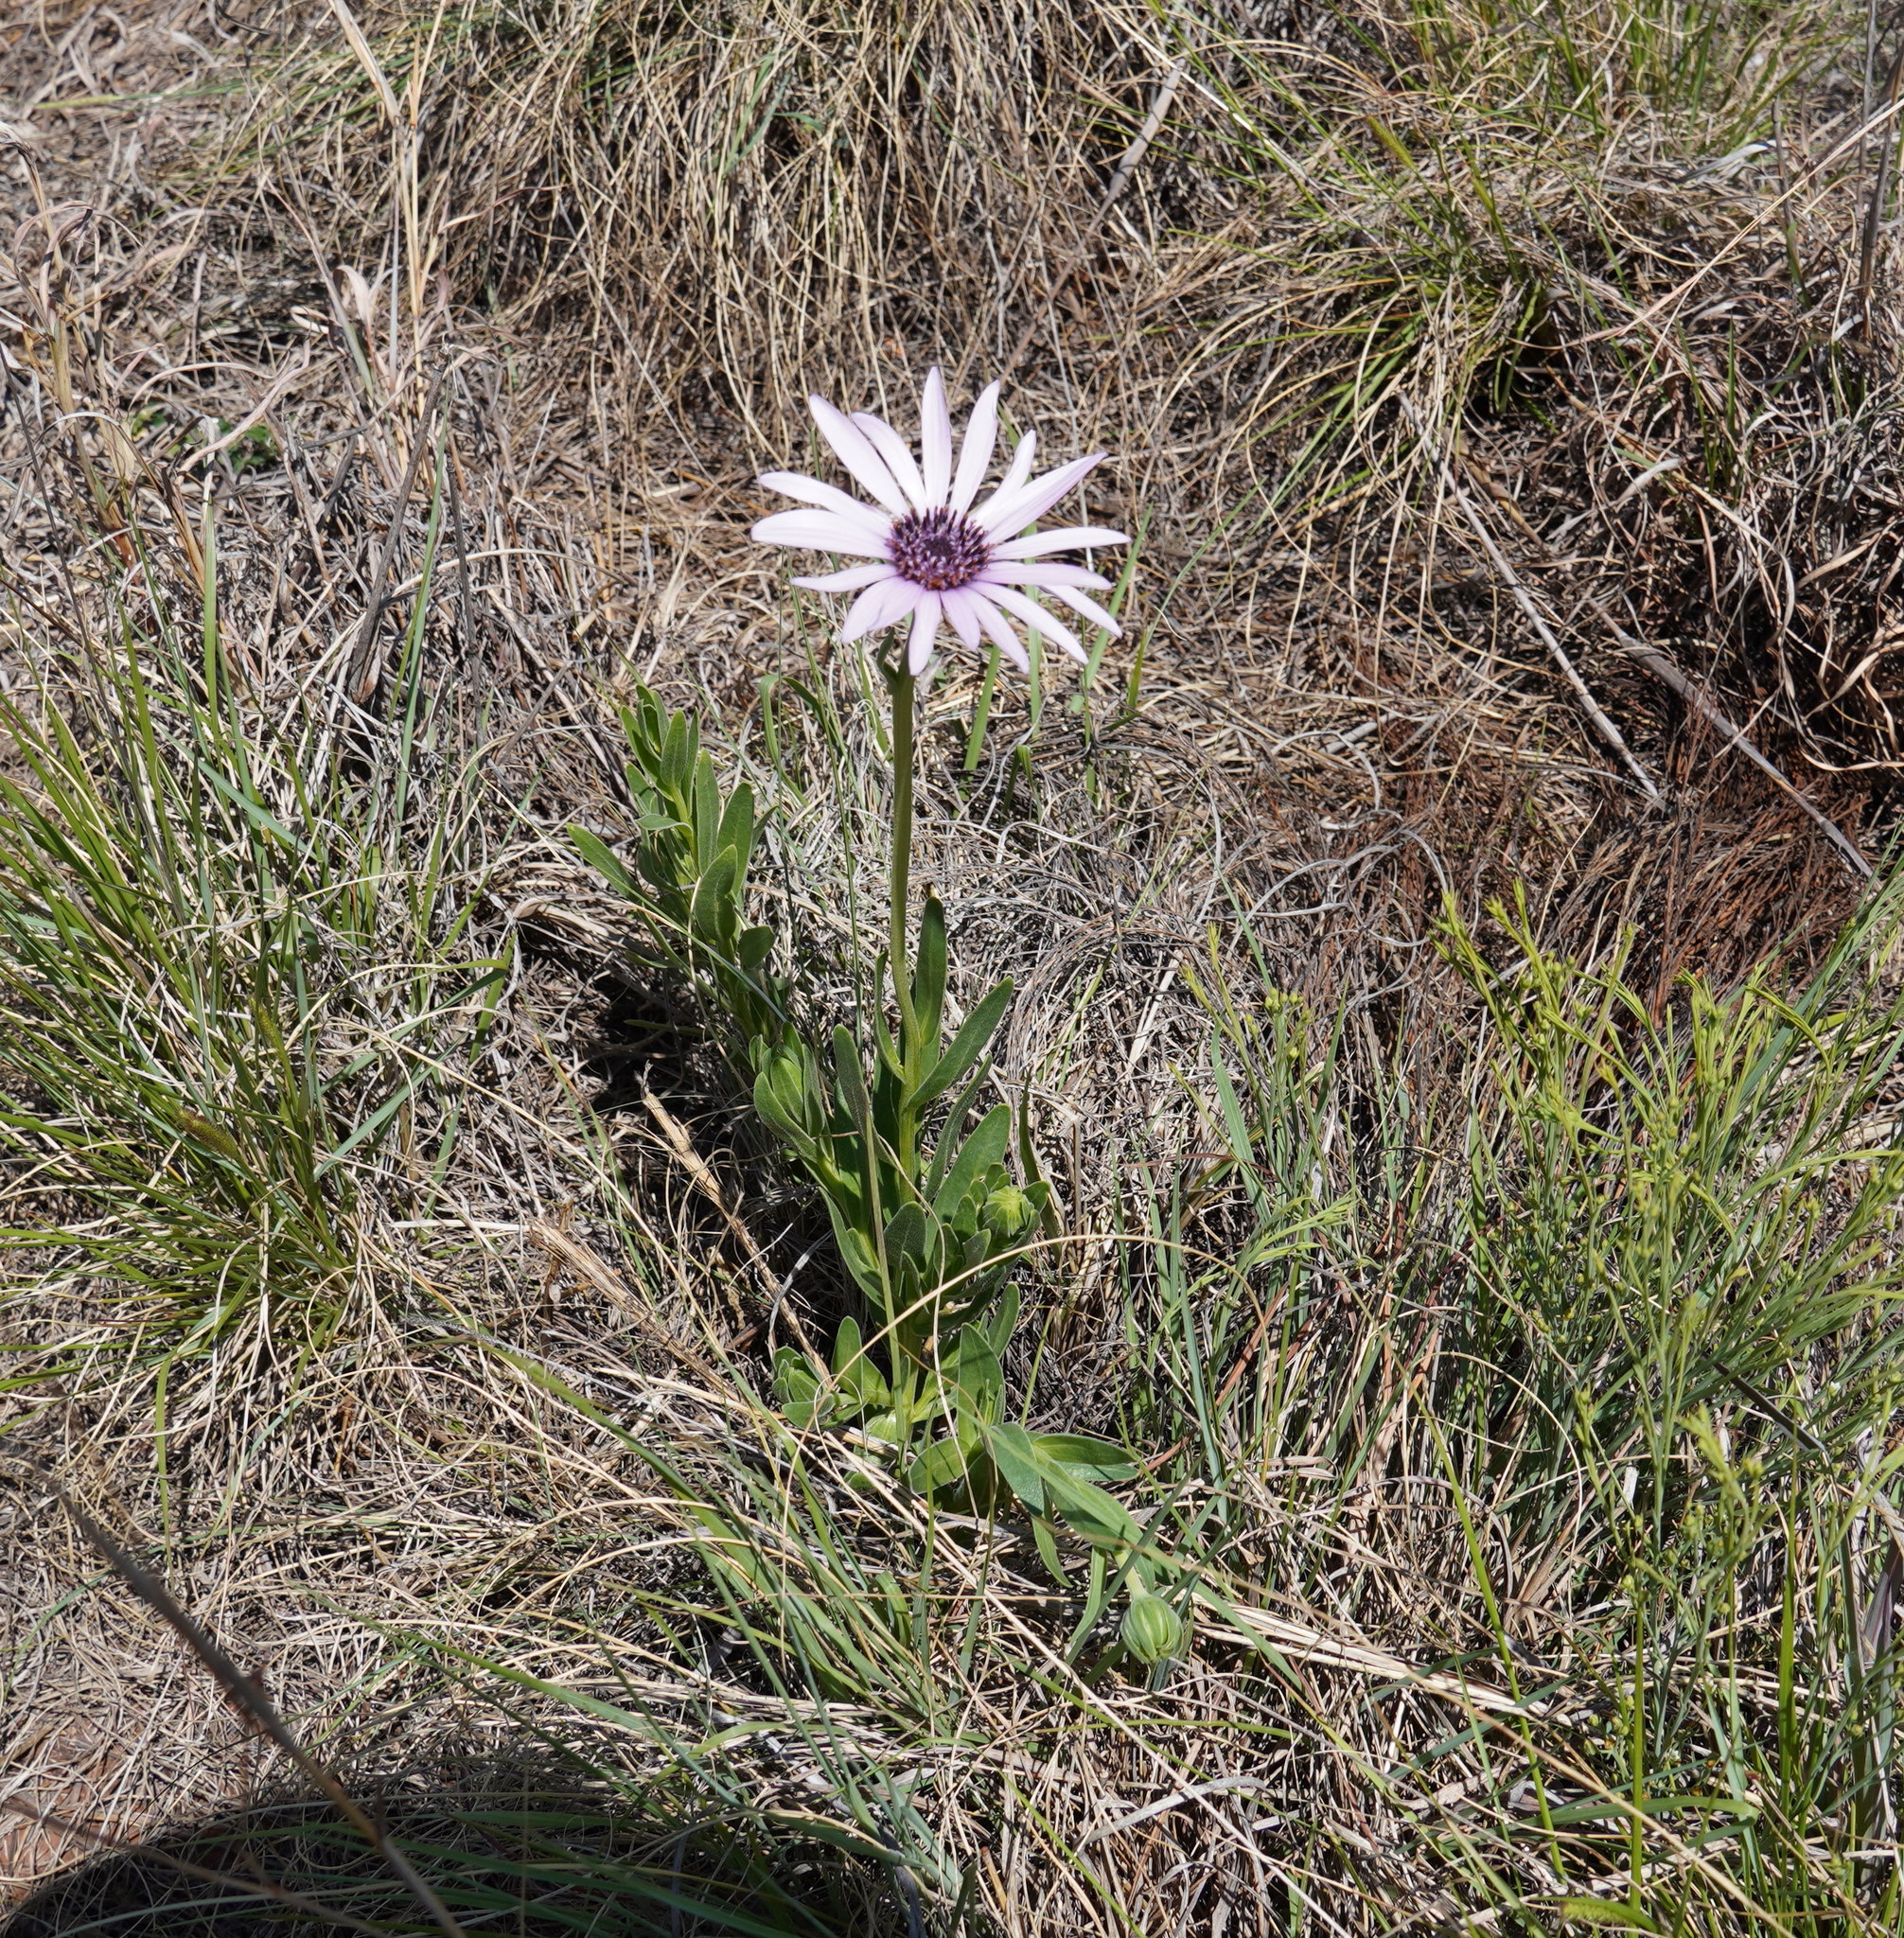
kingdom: Plantae
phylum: Tracheophyta
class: Magnoliopsida
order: Asterales
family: Asteraceae
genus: Dimorphotheca
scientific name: Dimorphotheca spectabilis
